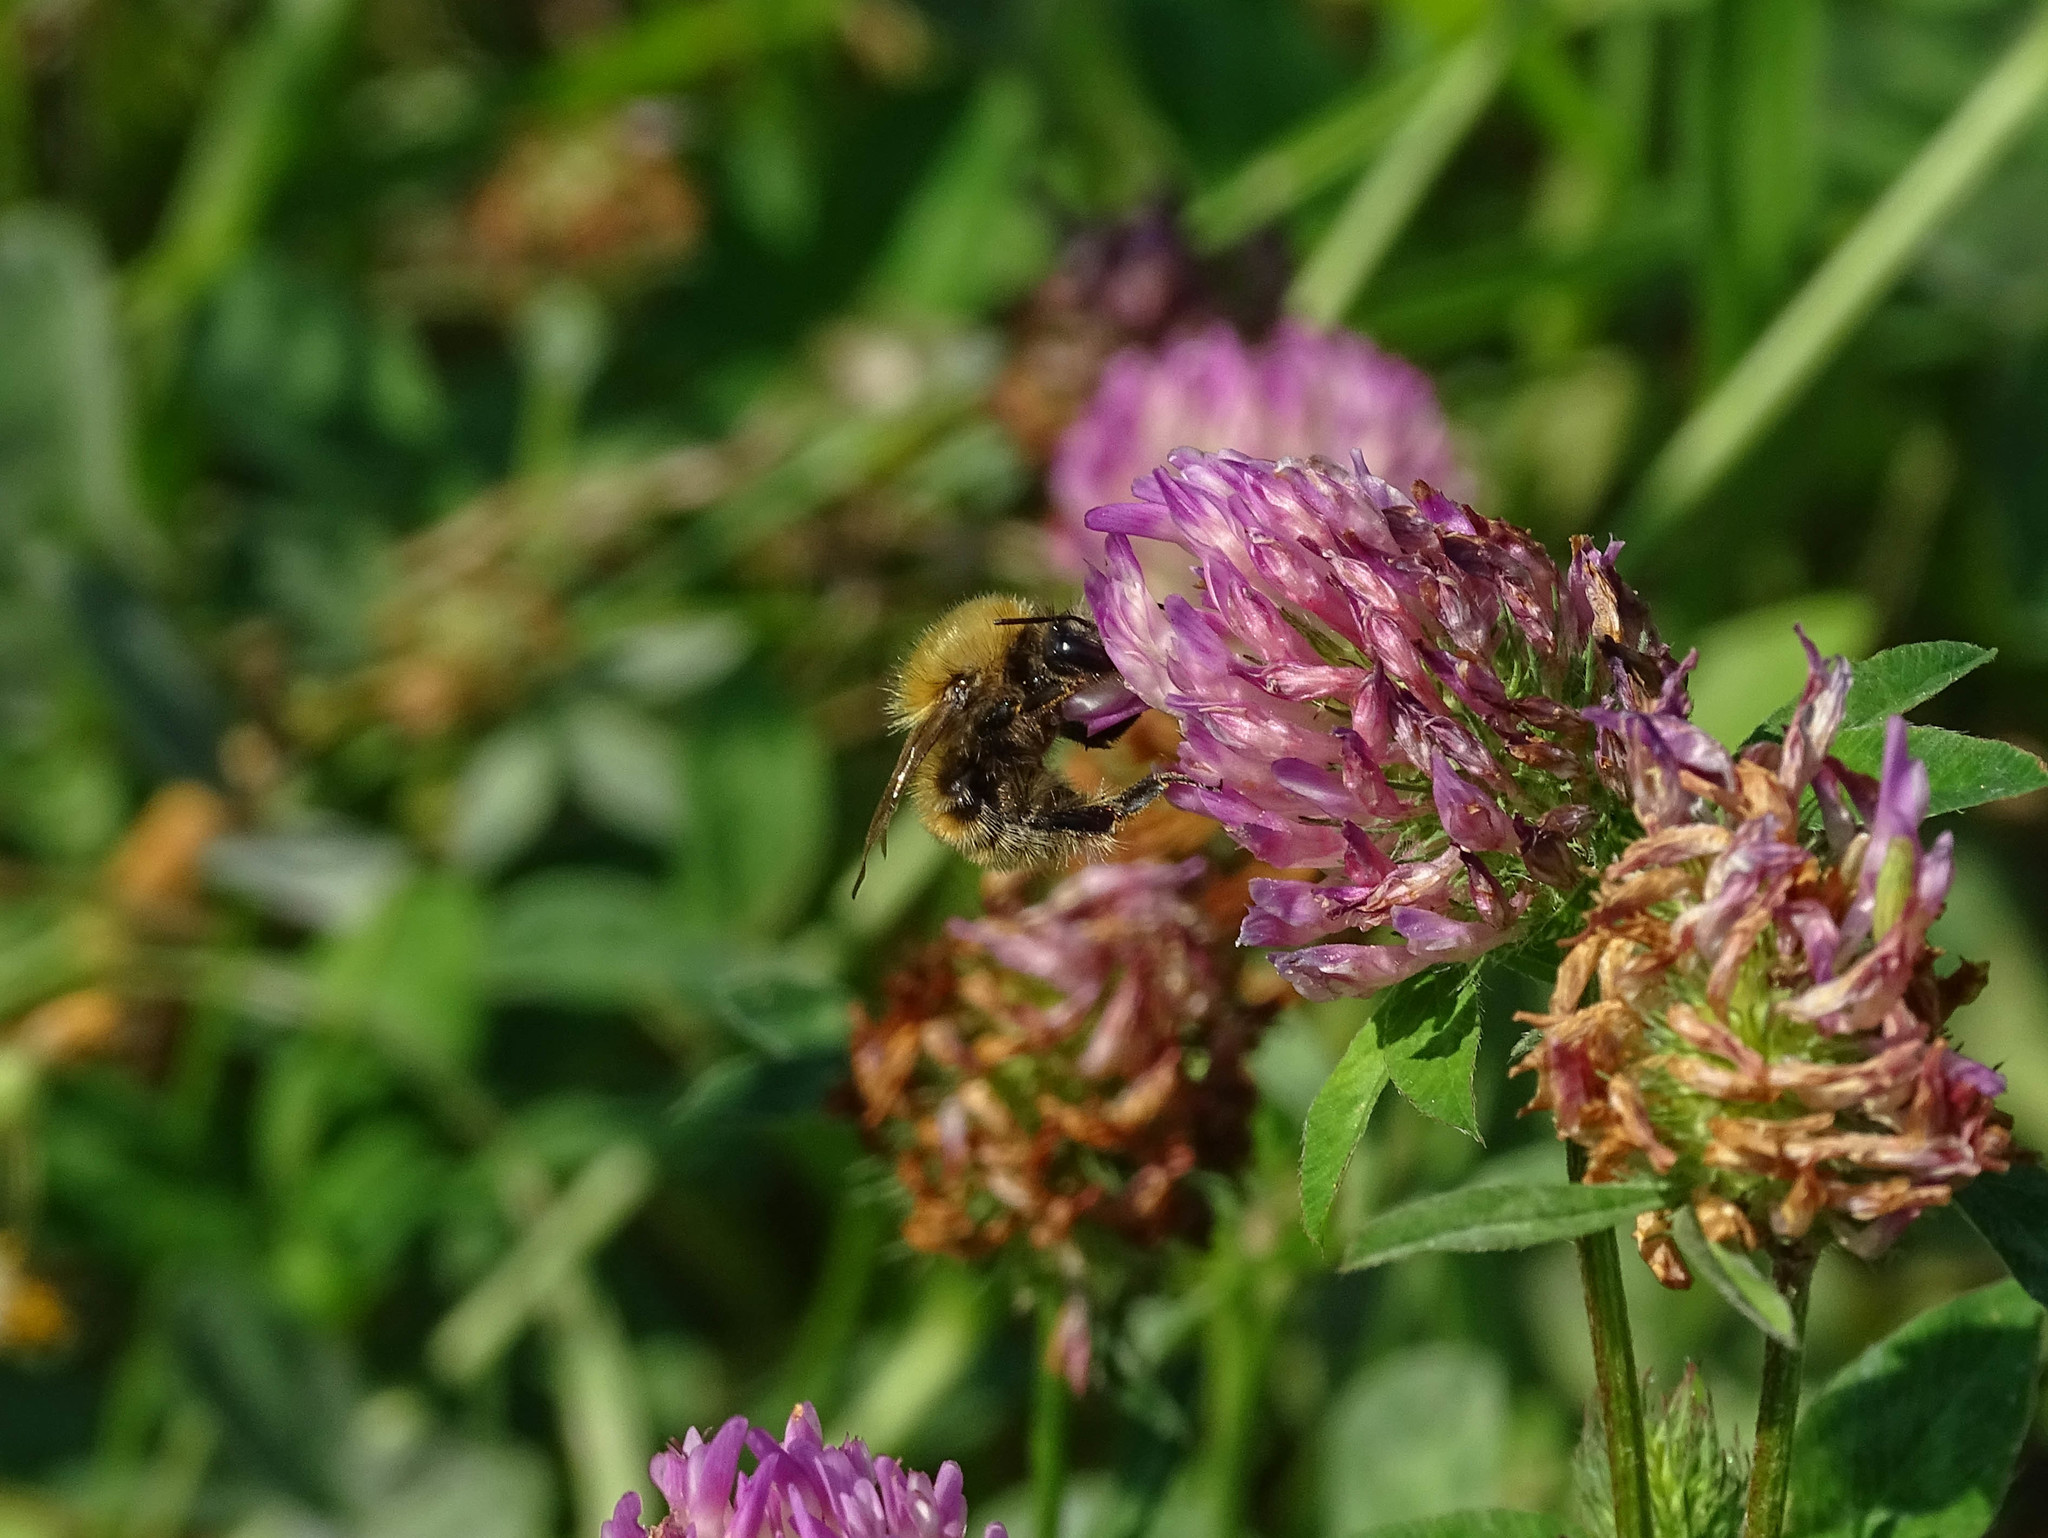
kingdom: Animalia
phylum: Arthropoda
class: Insecta
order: Hymenoptera
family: Apidae
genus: Bombus
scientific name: Bombus humilis
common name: Brown-banded carder-bee
